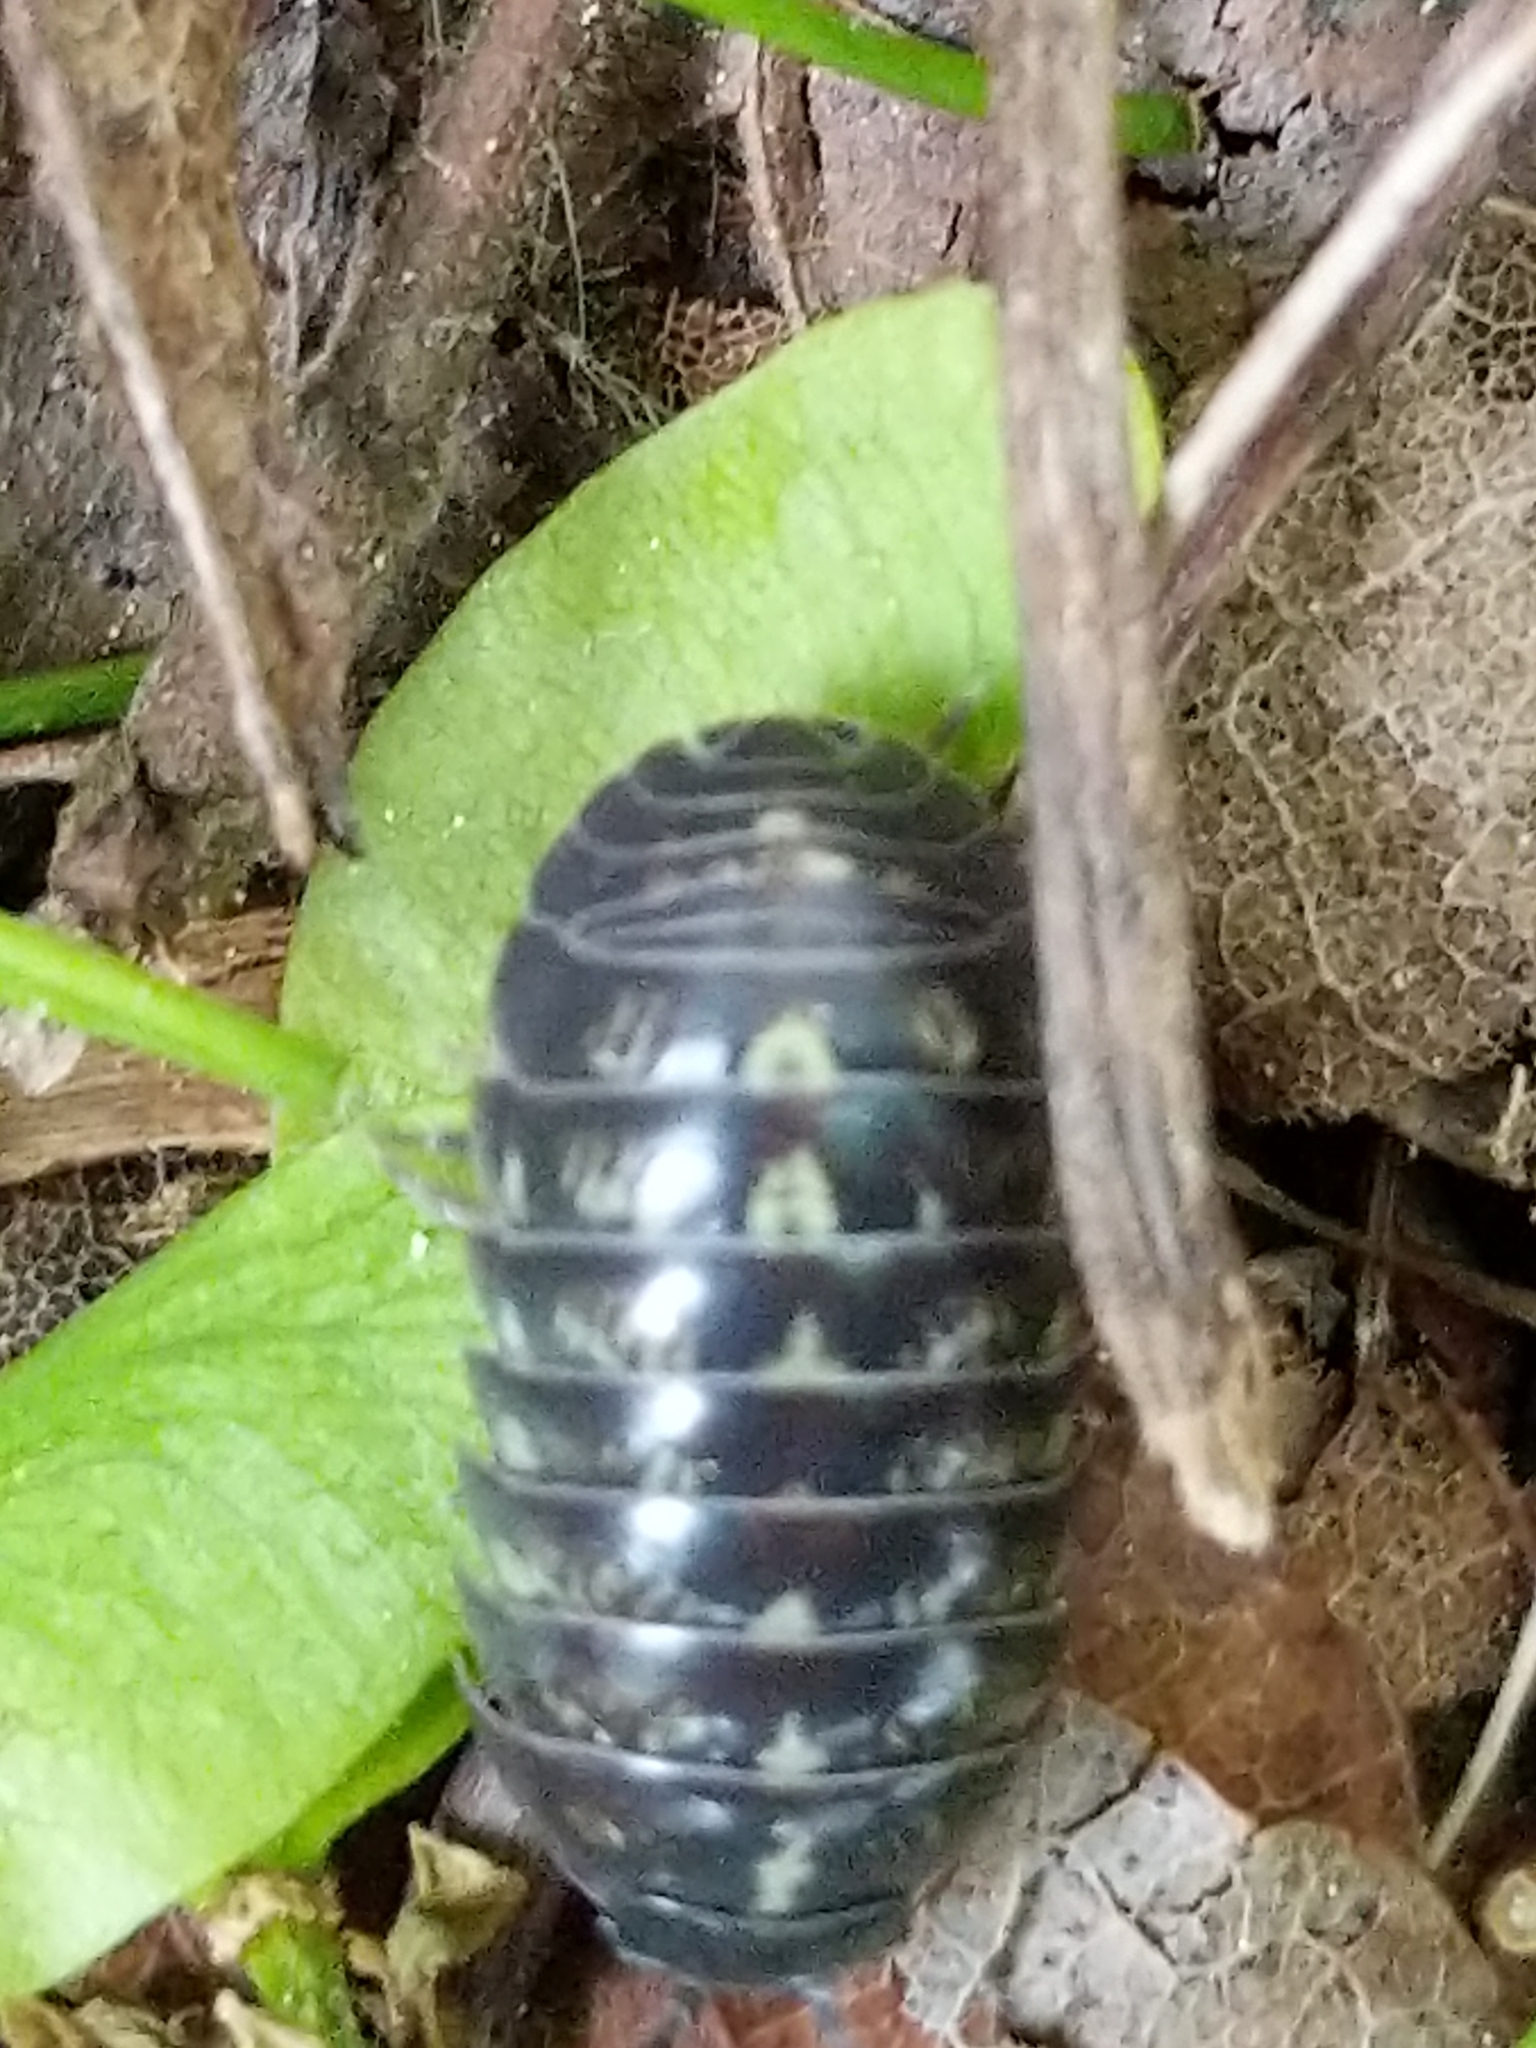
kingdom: Animalia
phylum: Arthropoda
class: Malacostraca
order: Isopoda
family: Armadillidiidae
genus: Armadillidium
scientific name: Armadillidium vulgare
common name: Common pill woodlouse
